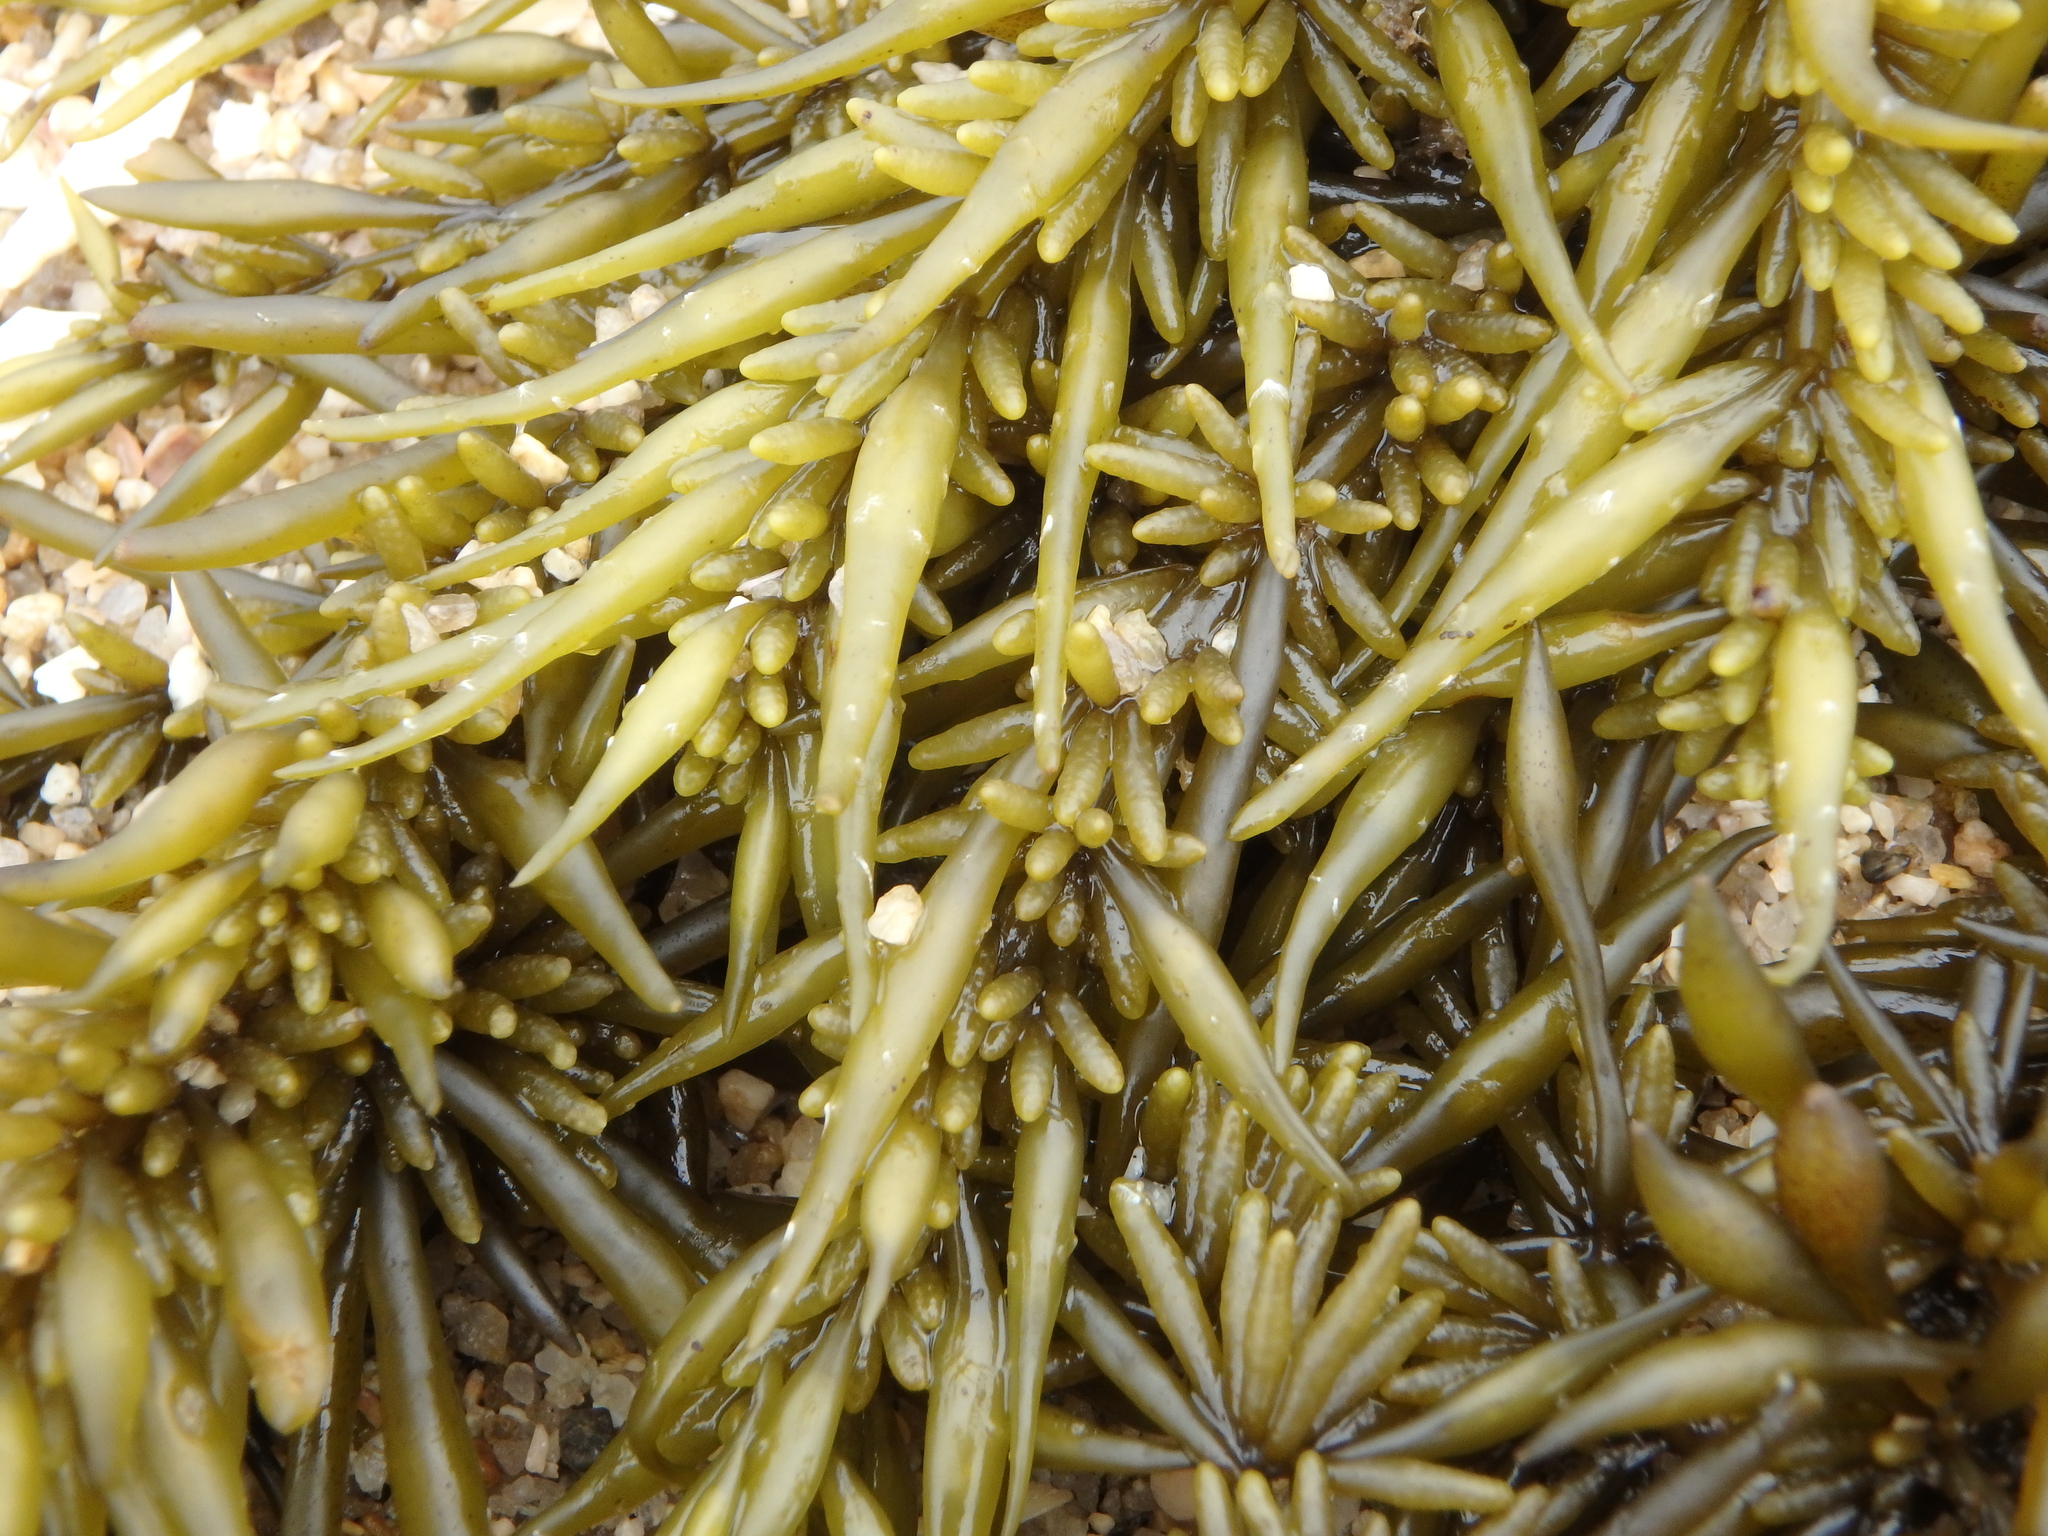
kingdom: Chromista
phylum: Ochrophyta
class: Phaeophyceae
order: Fucales
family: Sargassaceae
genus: Sargassum
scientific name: Sargassum fusiforme
